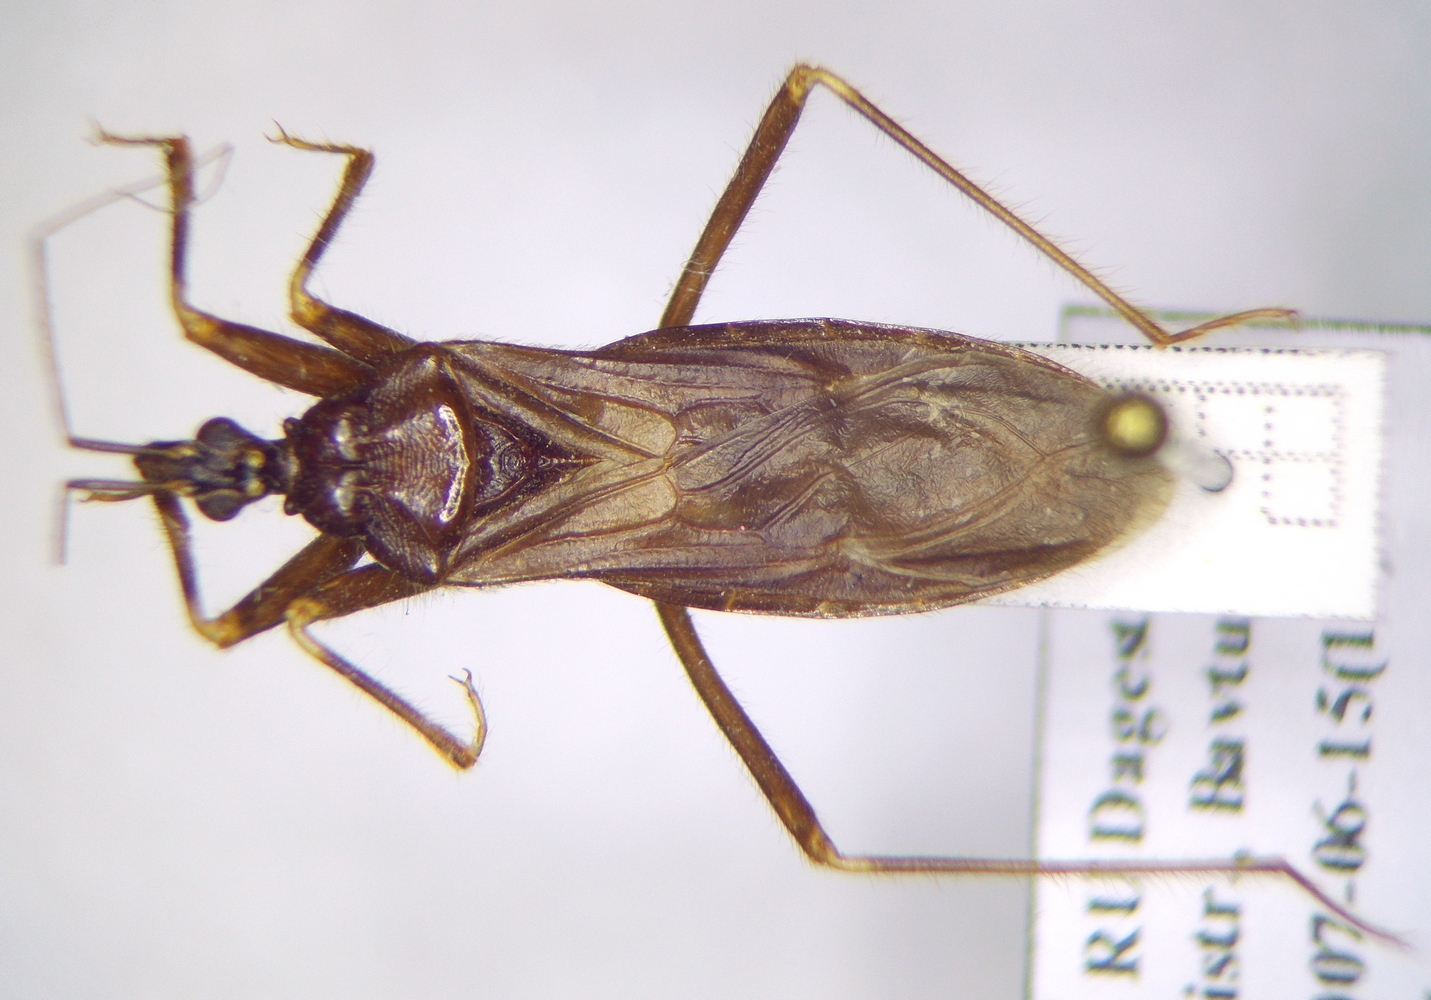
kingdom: Animalia
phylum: Arthropoda
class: Insecta
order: Hemiptera
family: Reduviidae
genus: Reduvius
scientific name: Reduvius personatus
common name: Masked hunter
